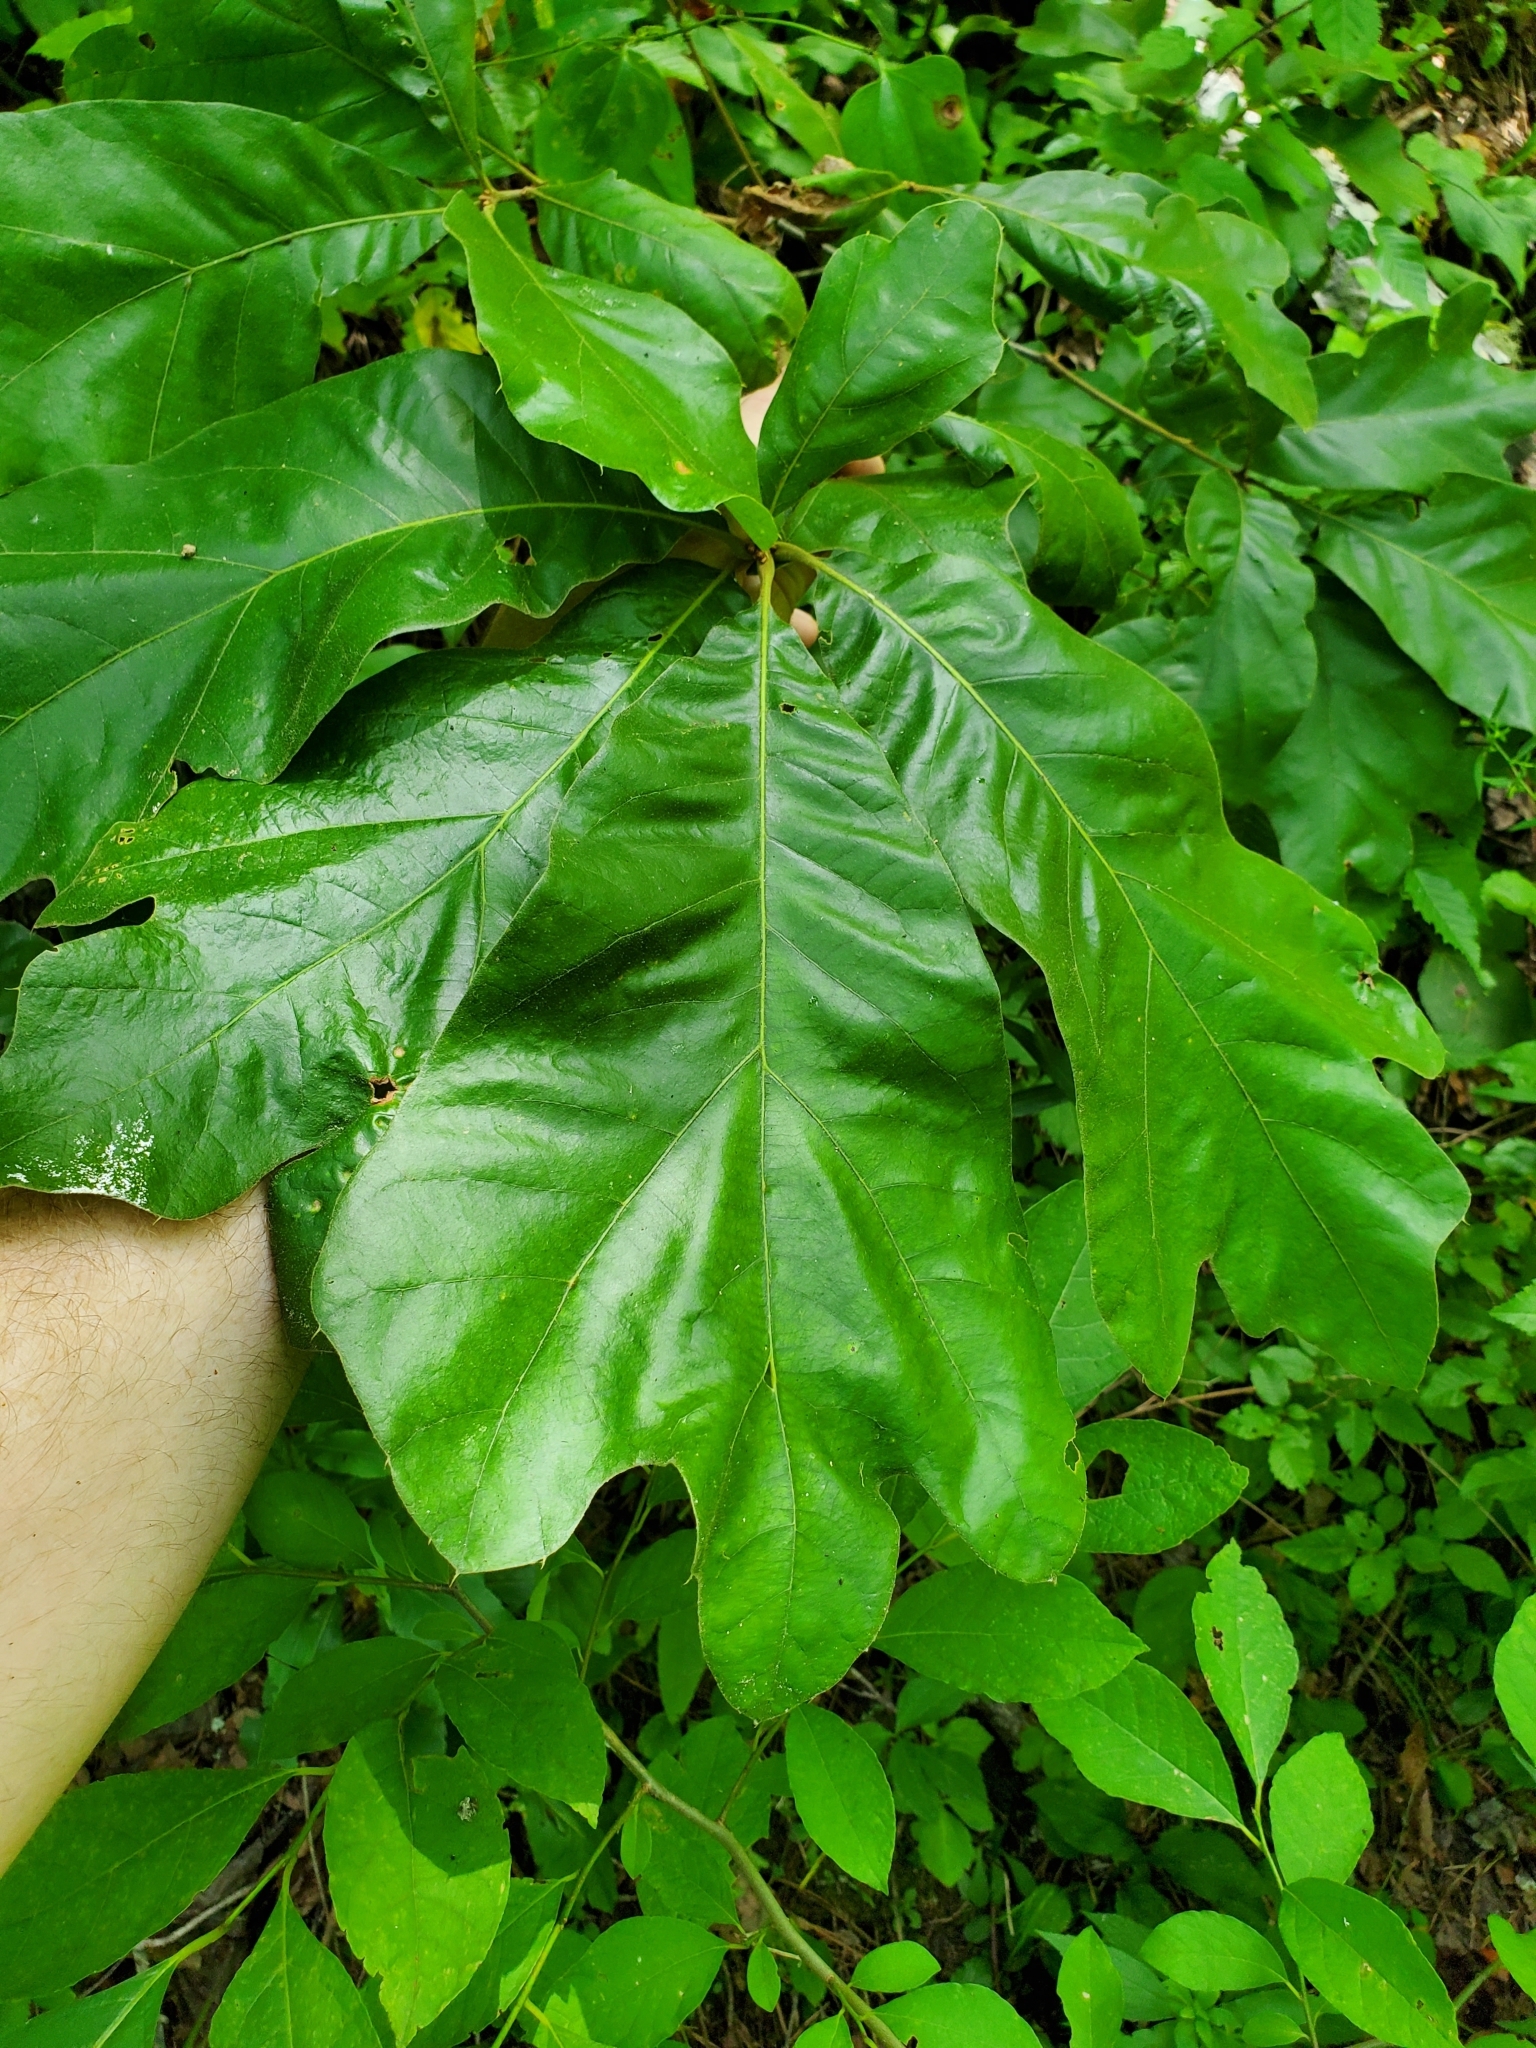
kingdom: Plantae
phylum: Tracheophyta
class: Magnoliopsida
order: Fagales
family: Fagaceae
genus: Quercus
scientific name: Quercus falcata
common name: Southern red oak
